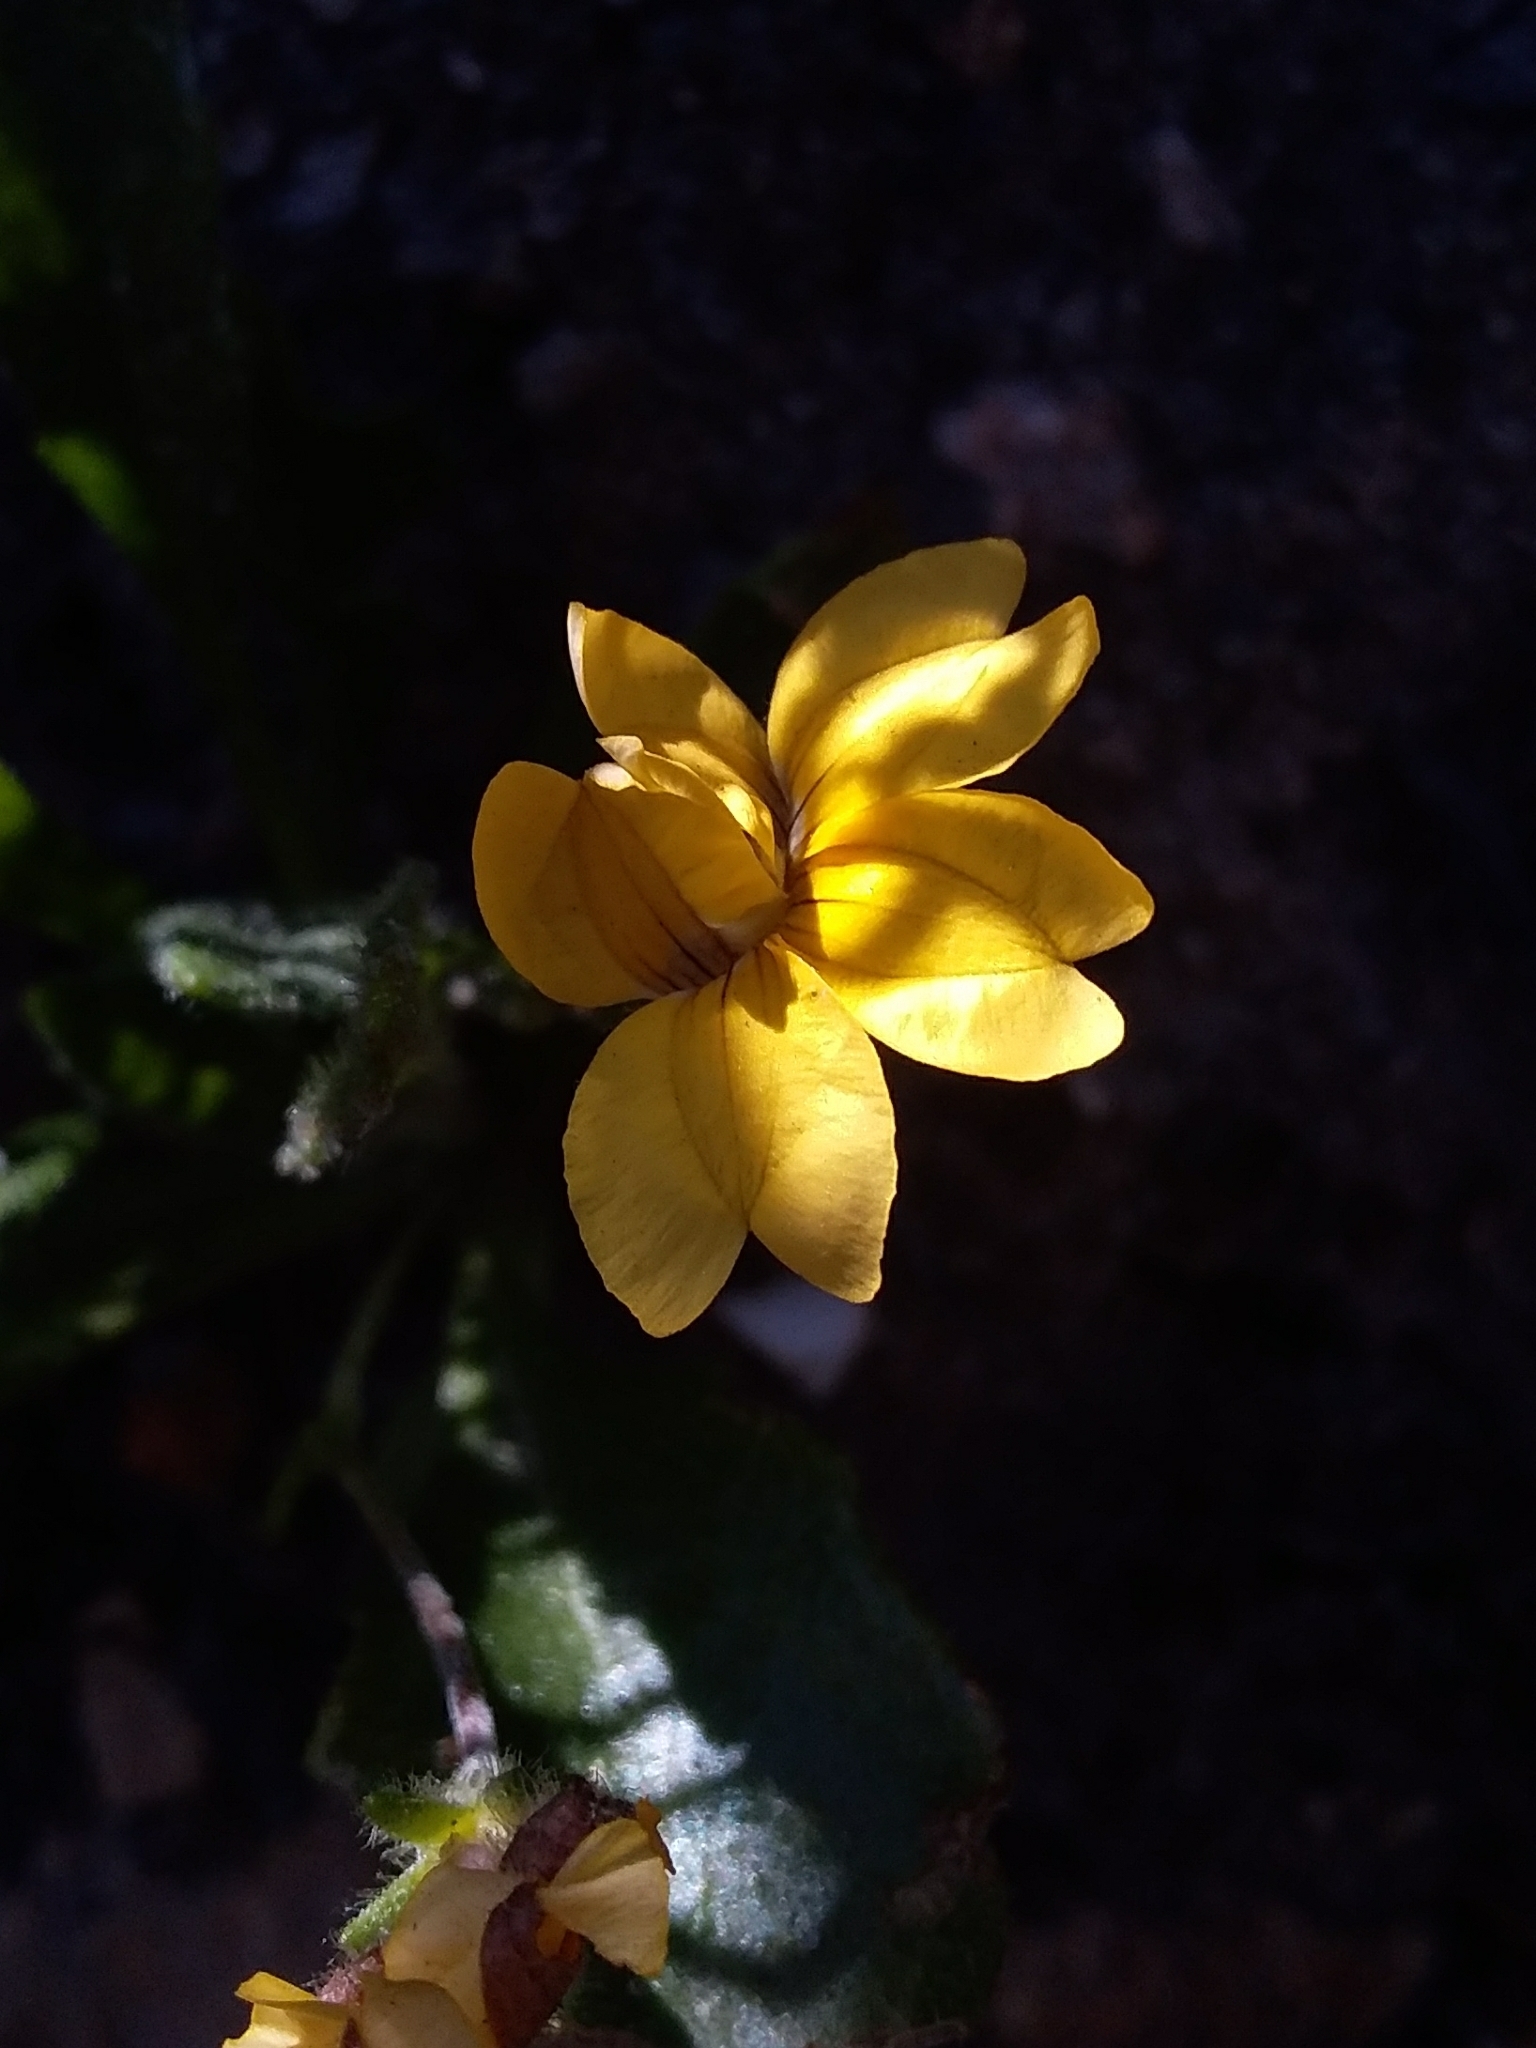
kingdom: Plantae
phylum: Tracheophyta
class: Magnoliopsida
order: Asterales
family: Goodeniaceae
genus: Goodenia
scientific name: Goodenia geniculata
